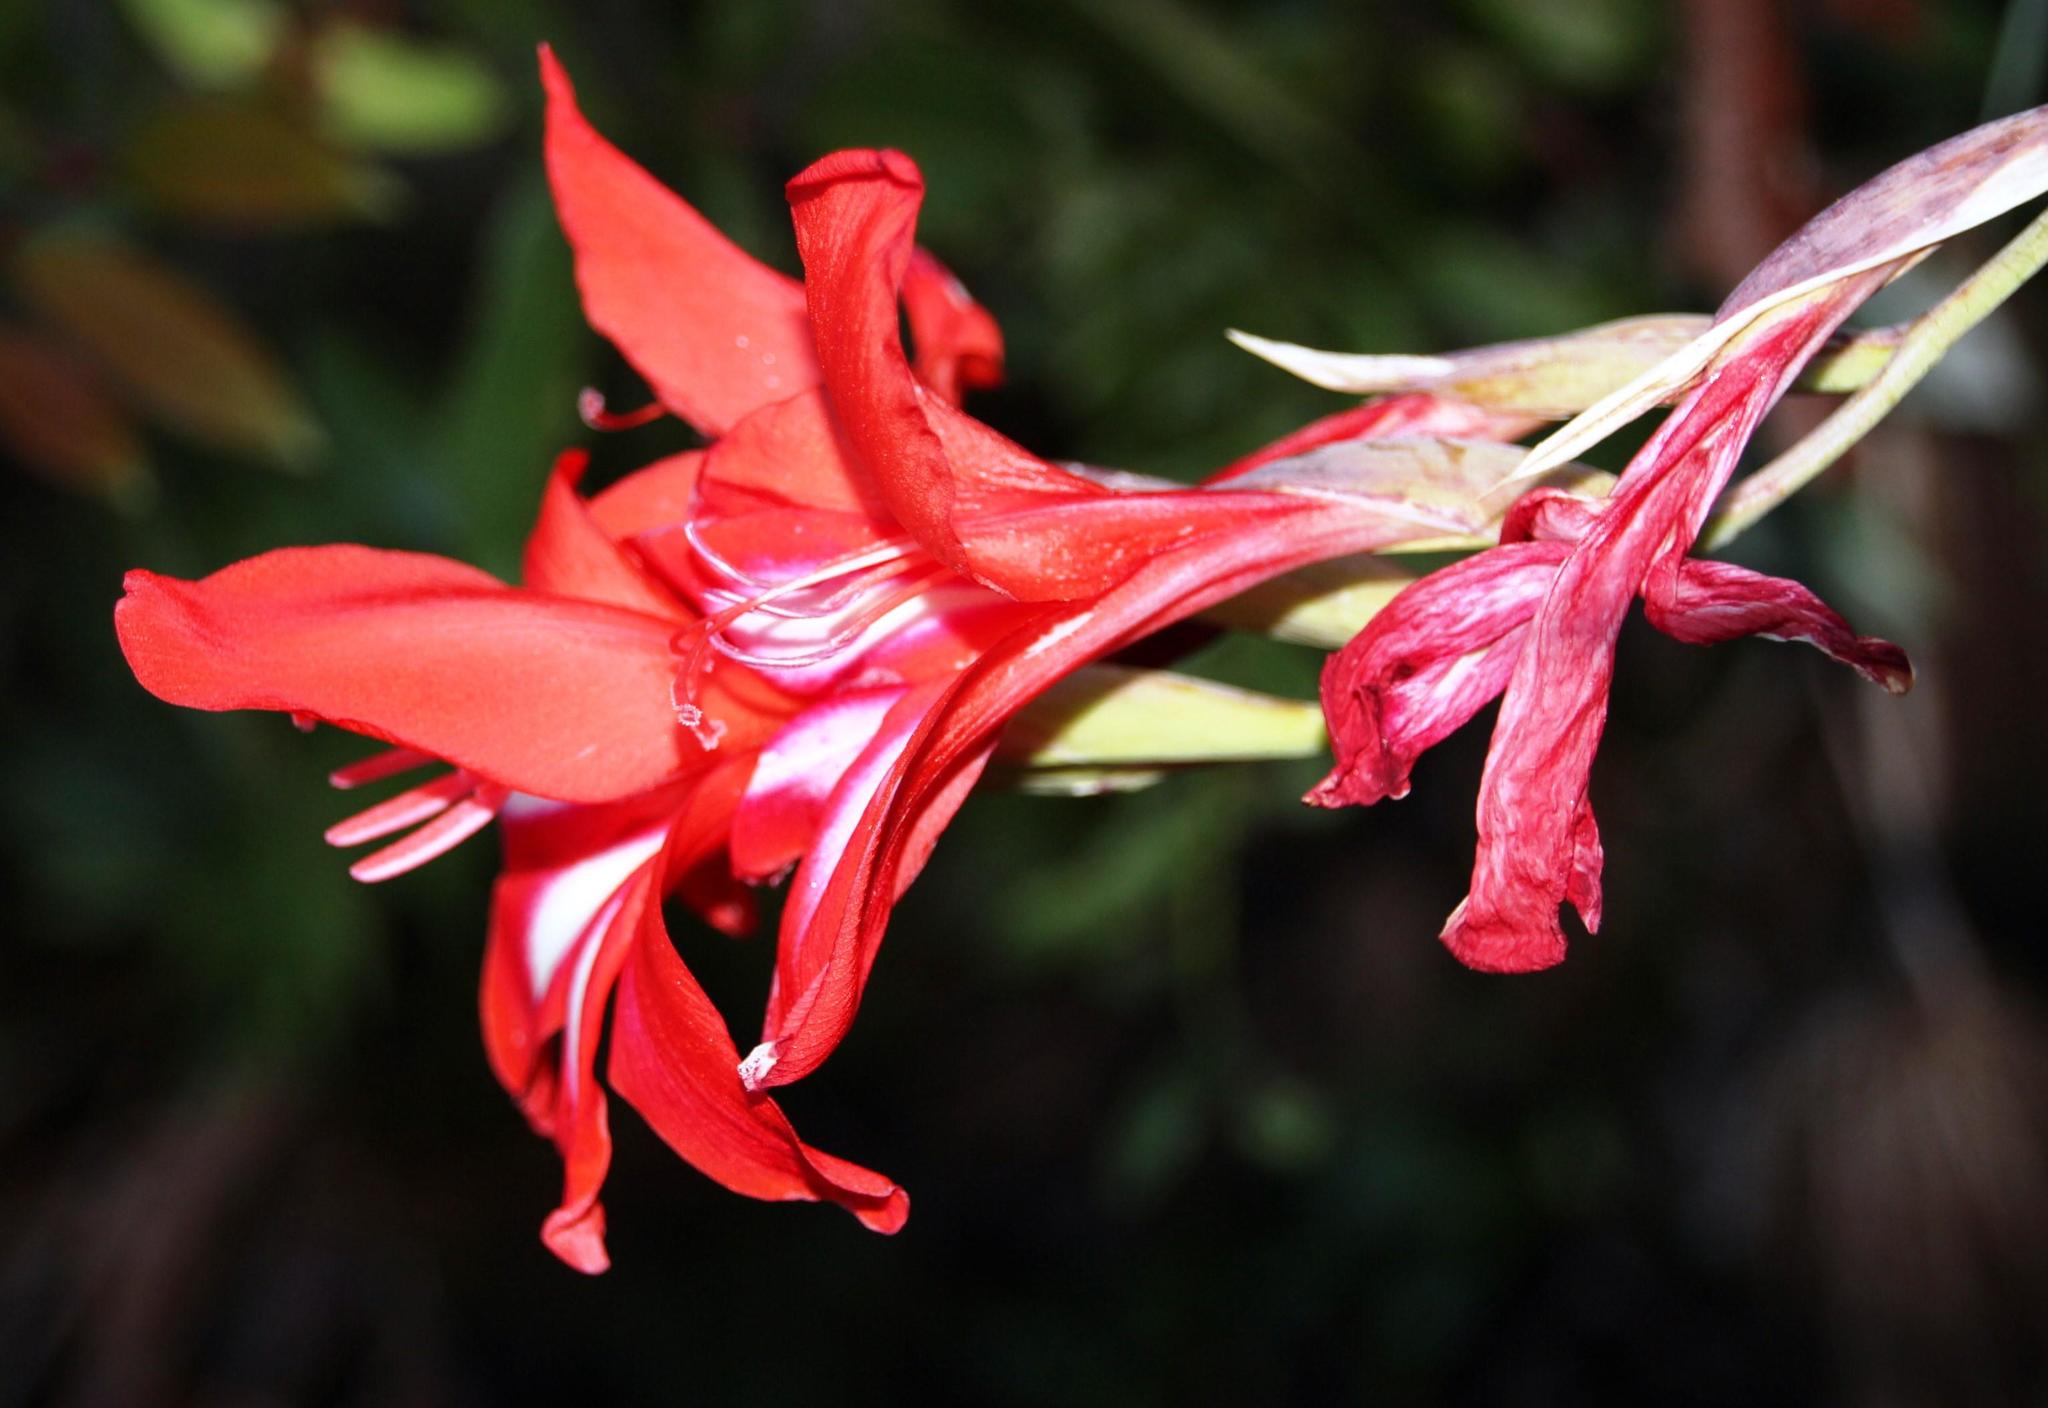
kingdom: Plantae
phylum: Tracheophyta
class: Liliopsida
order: Asparagales
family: Iridaceae
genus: Gladiolus
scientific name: Gladiolus cardinalis
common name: New year-lily
